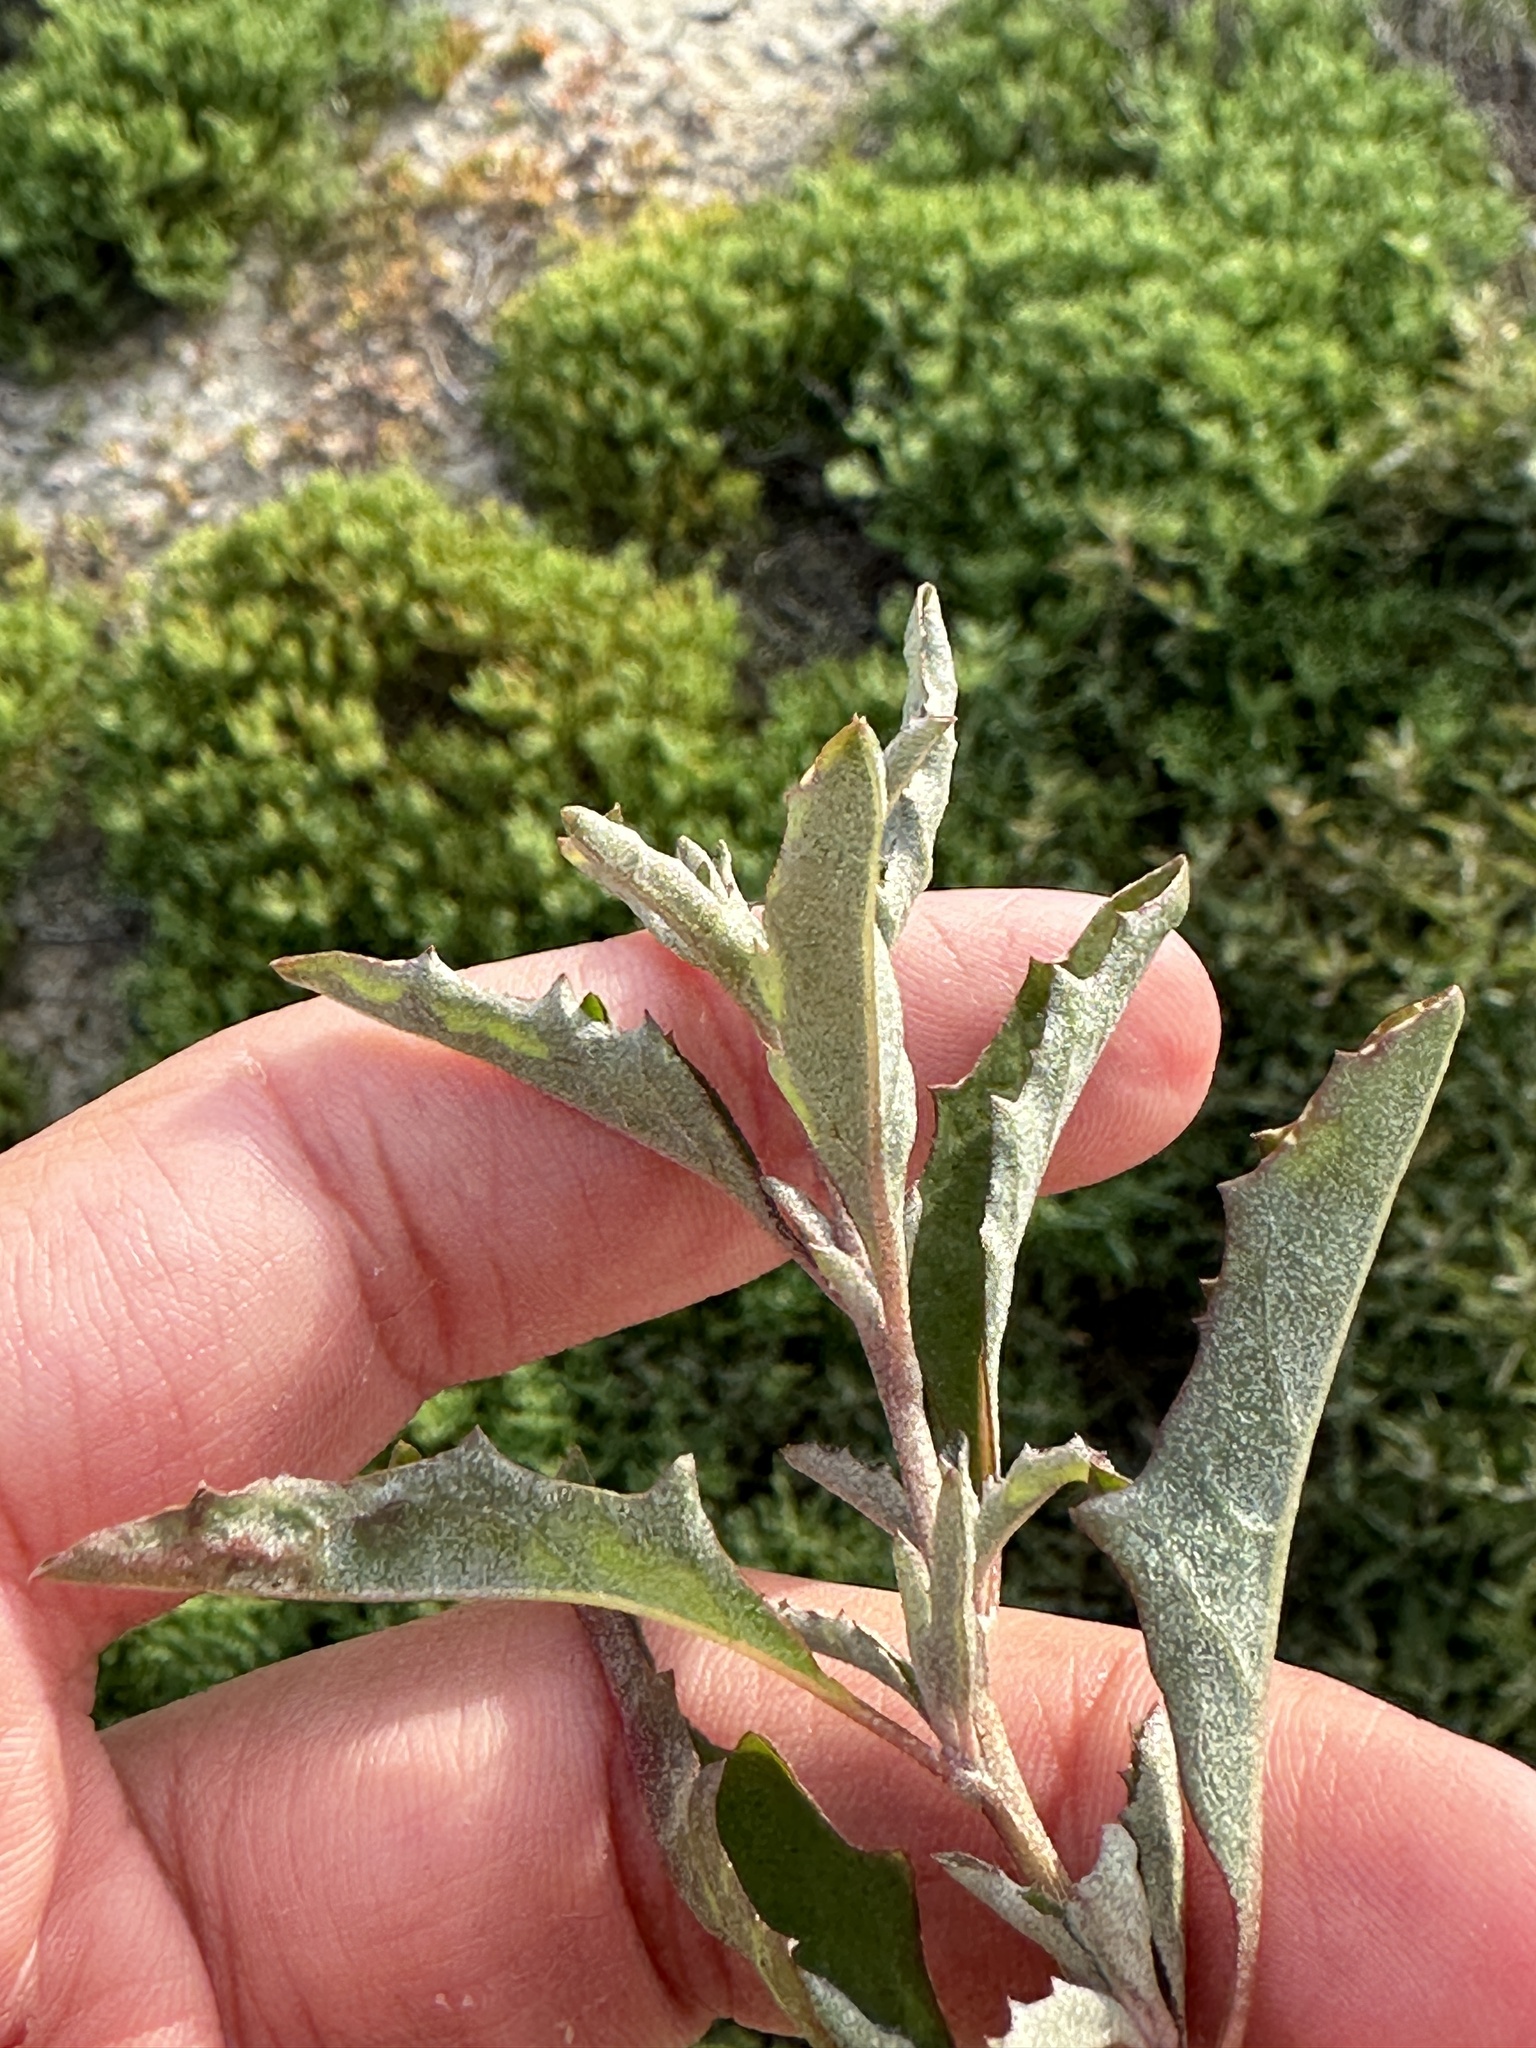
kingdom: Plantae
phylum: Tracheophyta
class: Magnoliopsida
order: Caryophyllales
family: Amaranthaceae
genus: Atriplex
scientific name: Atriplex semibaccata
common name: Australian saltbush
